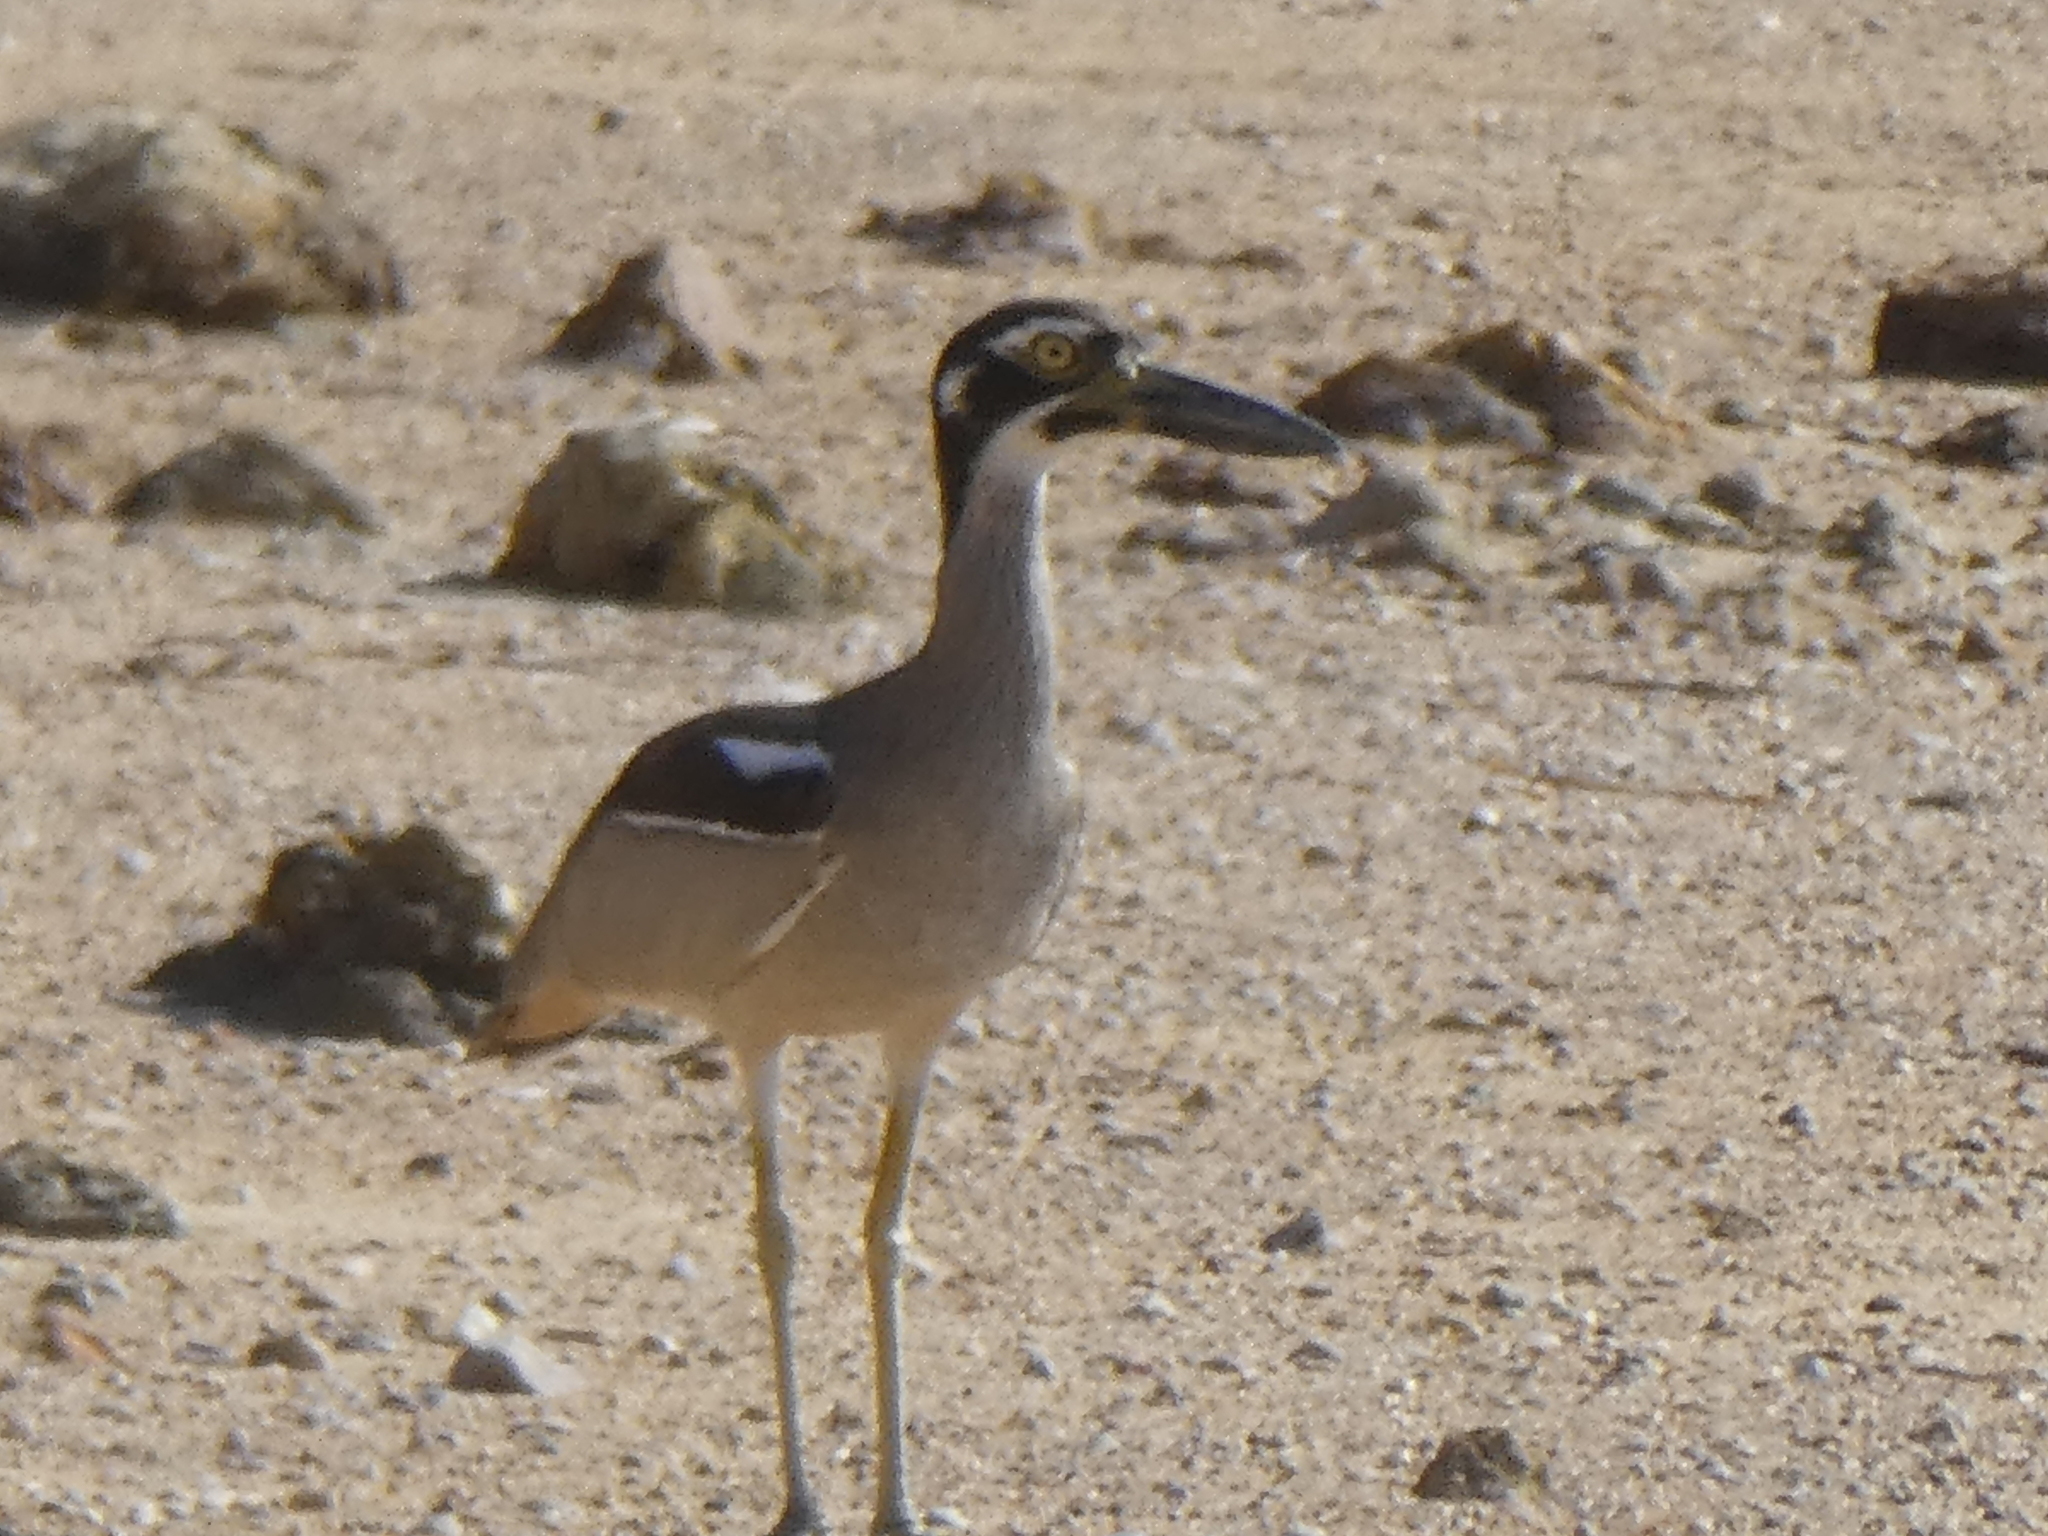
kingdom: Animalia
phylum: Chordata
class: Aves
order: Charadriiformes
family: Burhinidae
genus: Esacus
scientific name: Esacus magnirostris
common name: Beach stone-curlew
